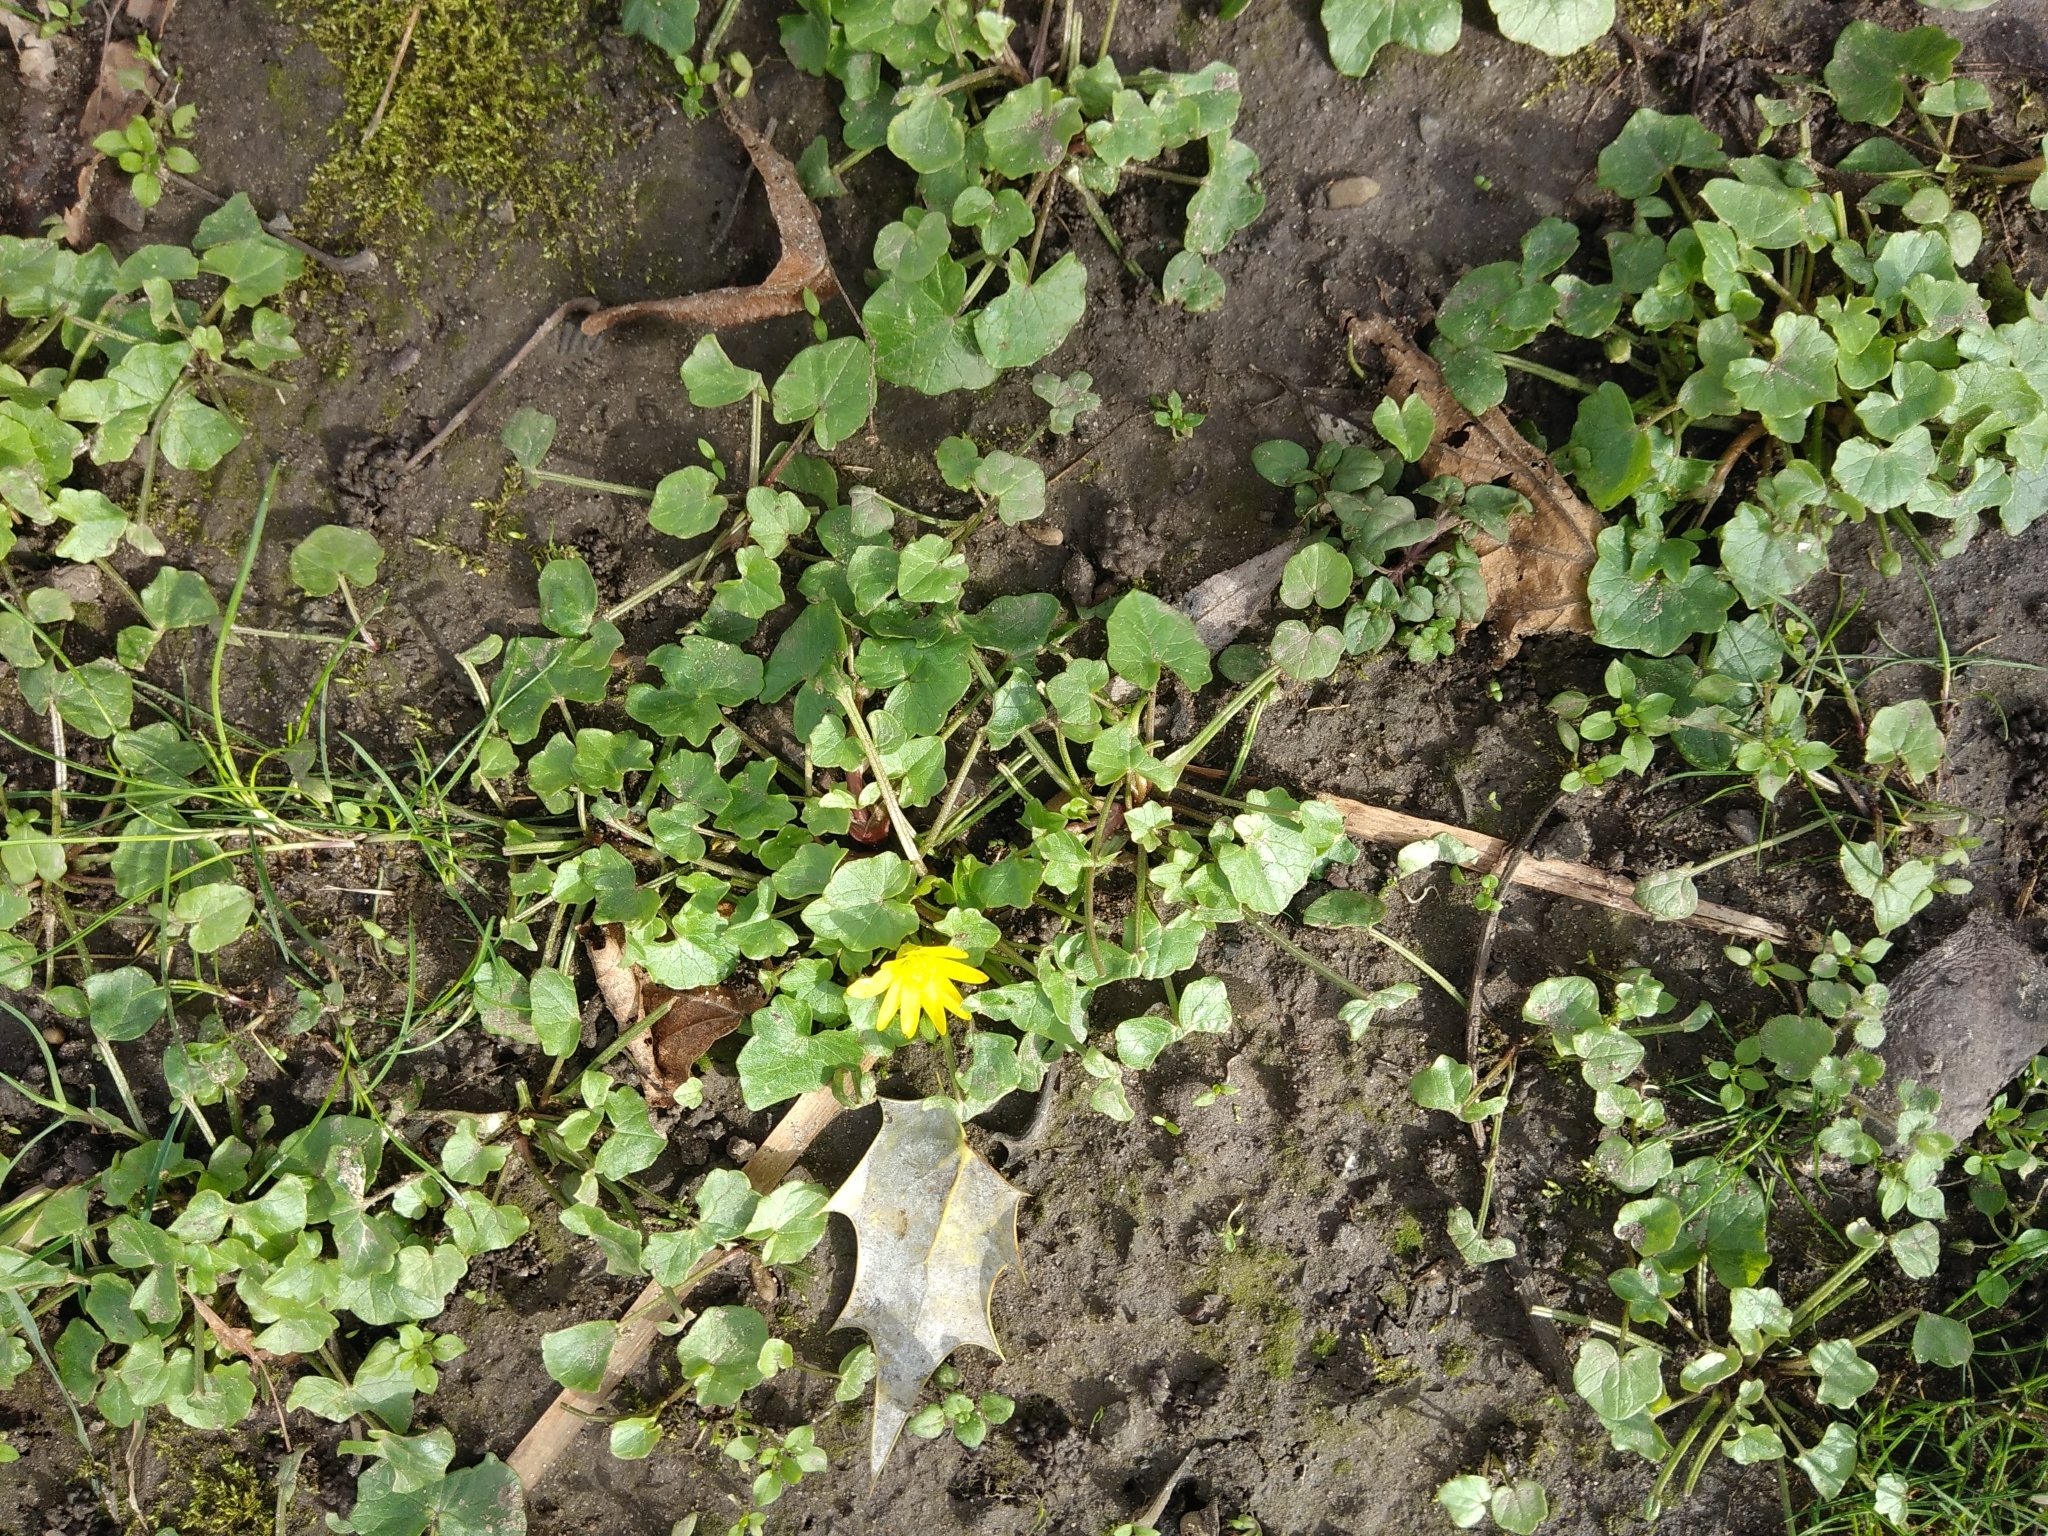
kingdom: Plantae
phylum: Tracheophyta
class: Magnoliopsida
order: Ranunculales
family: Ranunculaceae
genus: Ficaria
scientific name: Ficaria verna
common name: Lesser celandine
